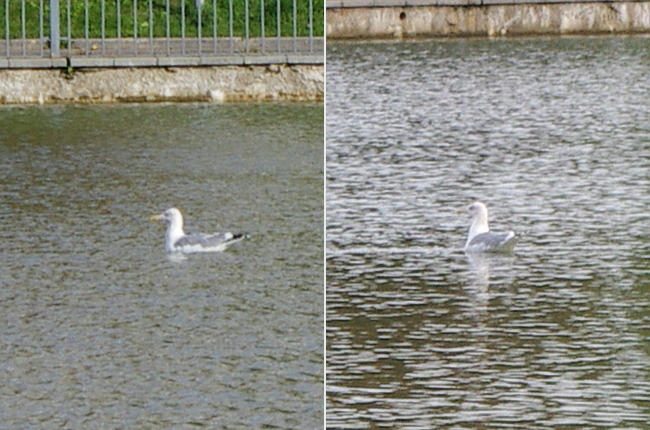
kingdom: Animalia
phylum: Chordata
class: Aves
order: Charadriiformes
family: Laridae
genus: Larus
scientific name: Larus cachinnans
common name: Caspian gull
